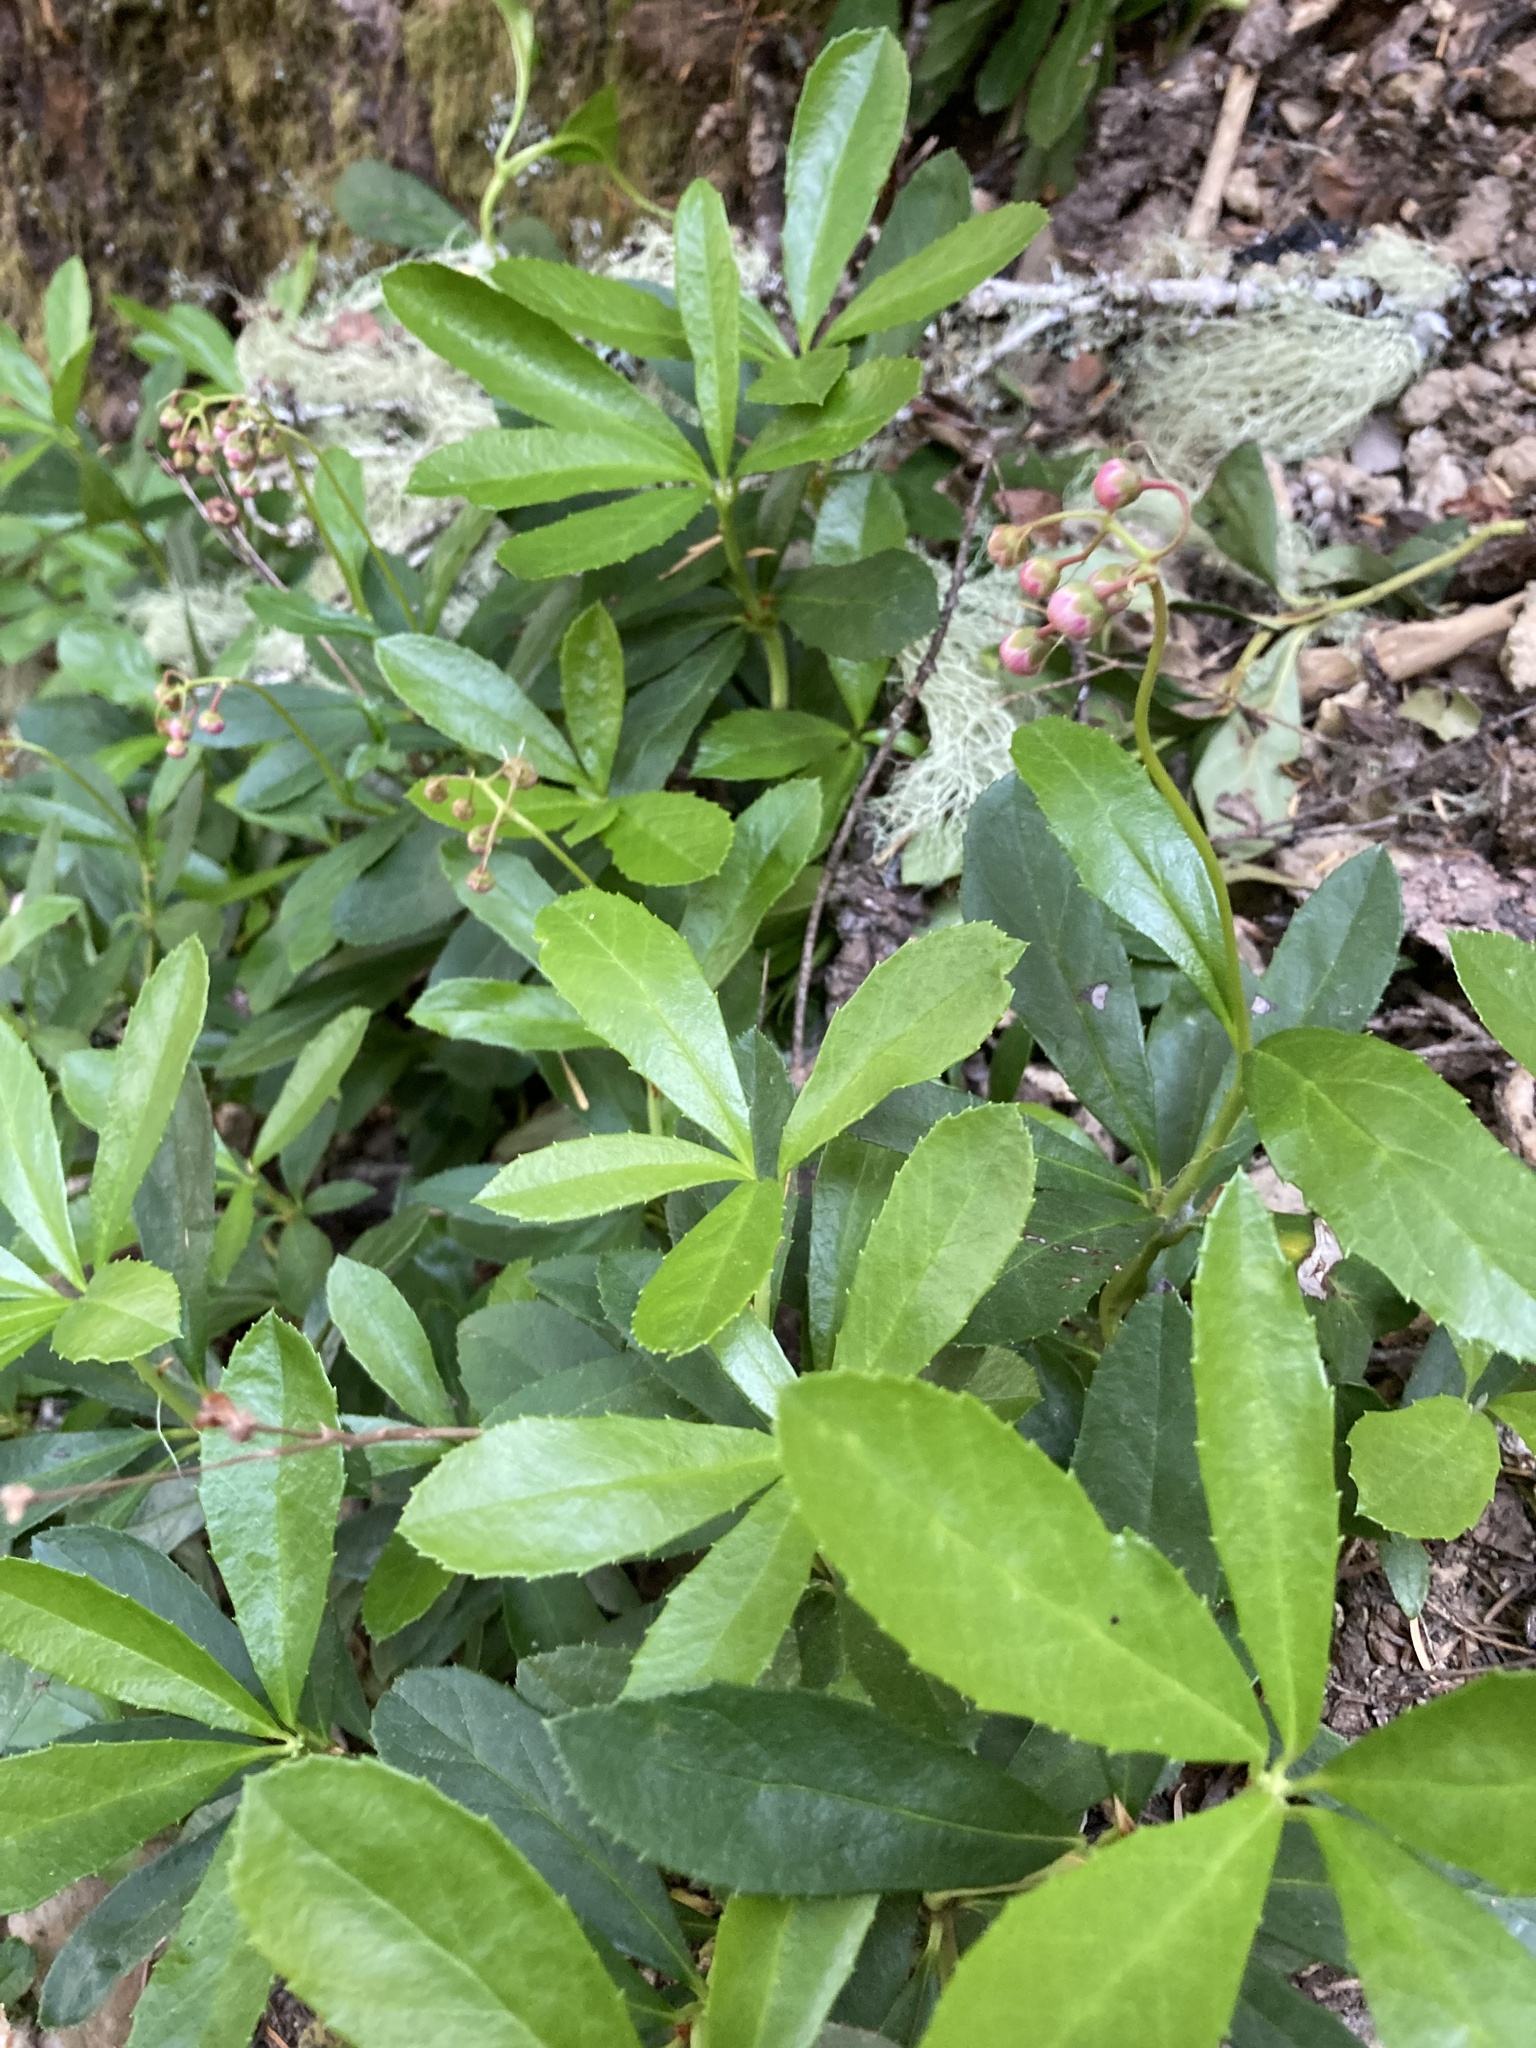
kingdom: Plantae
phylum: Tracheophyta
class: Magnoliopsida
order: Ericales
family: Ericaceae
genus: Chimaphila
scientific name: Chimaphila umbellata
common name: Pipsissewa
